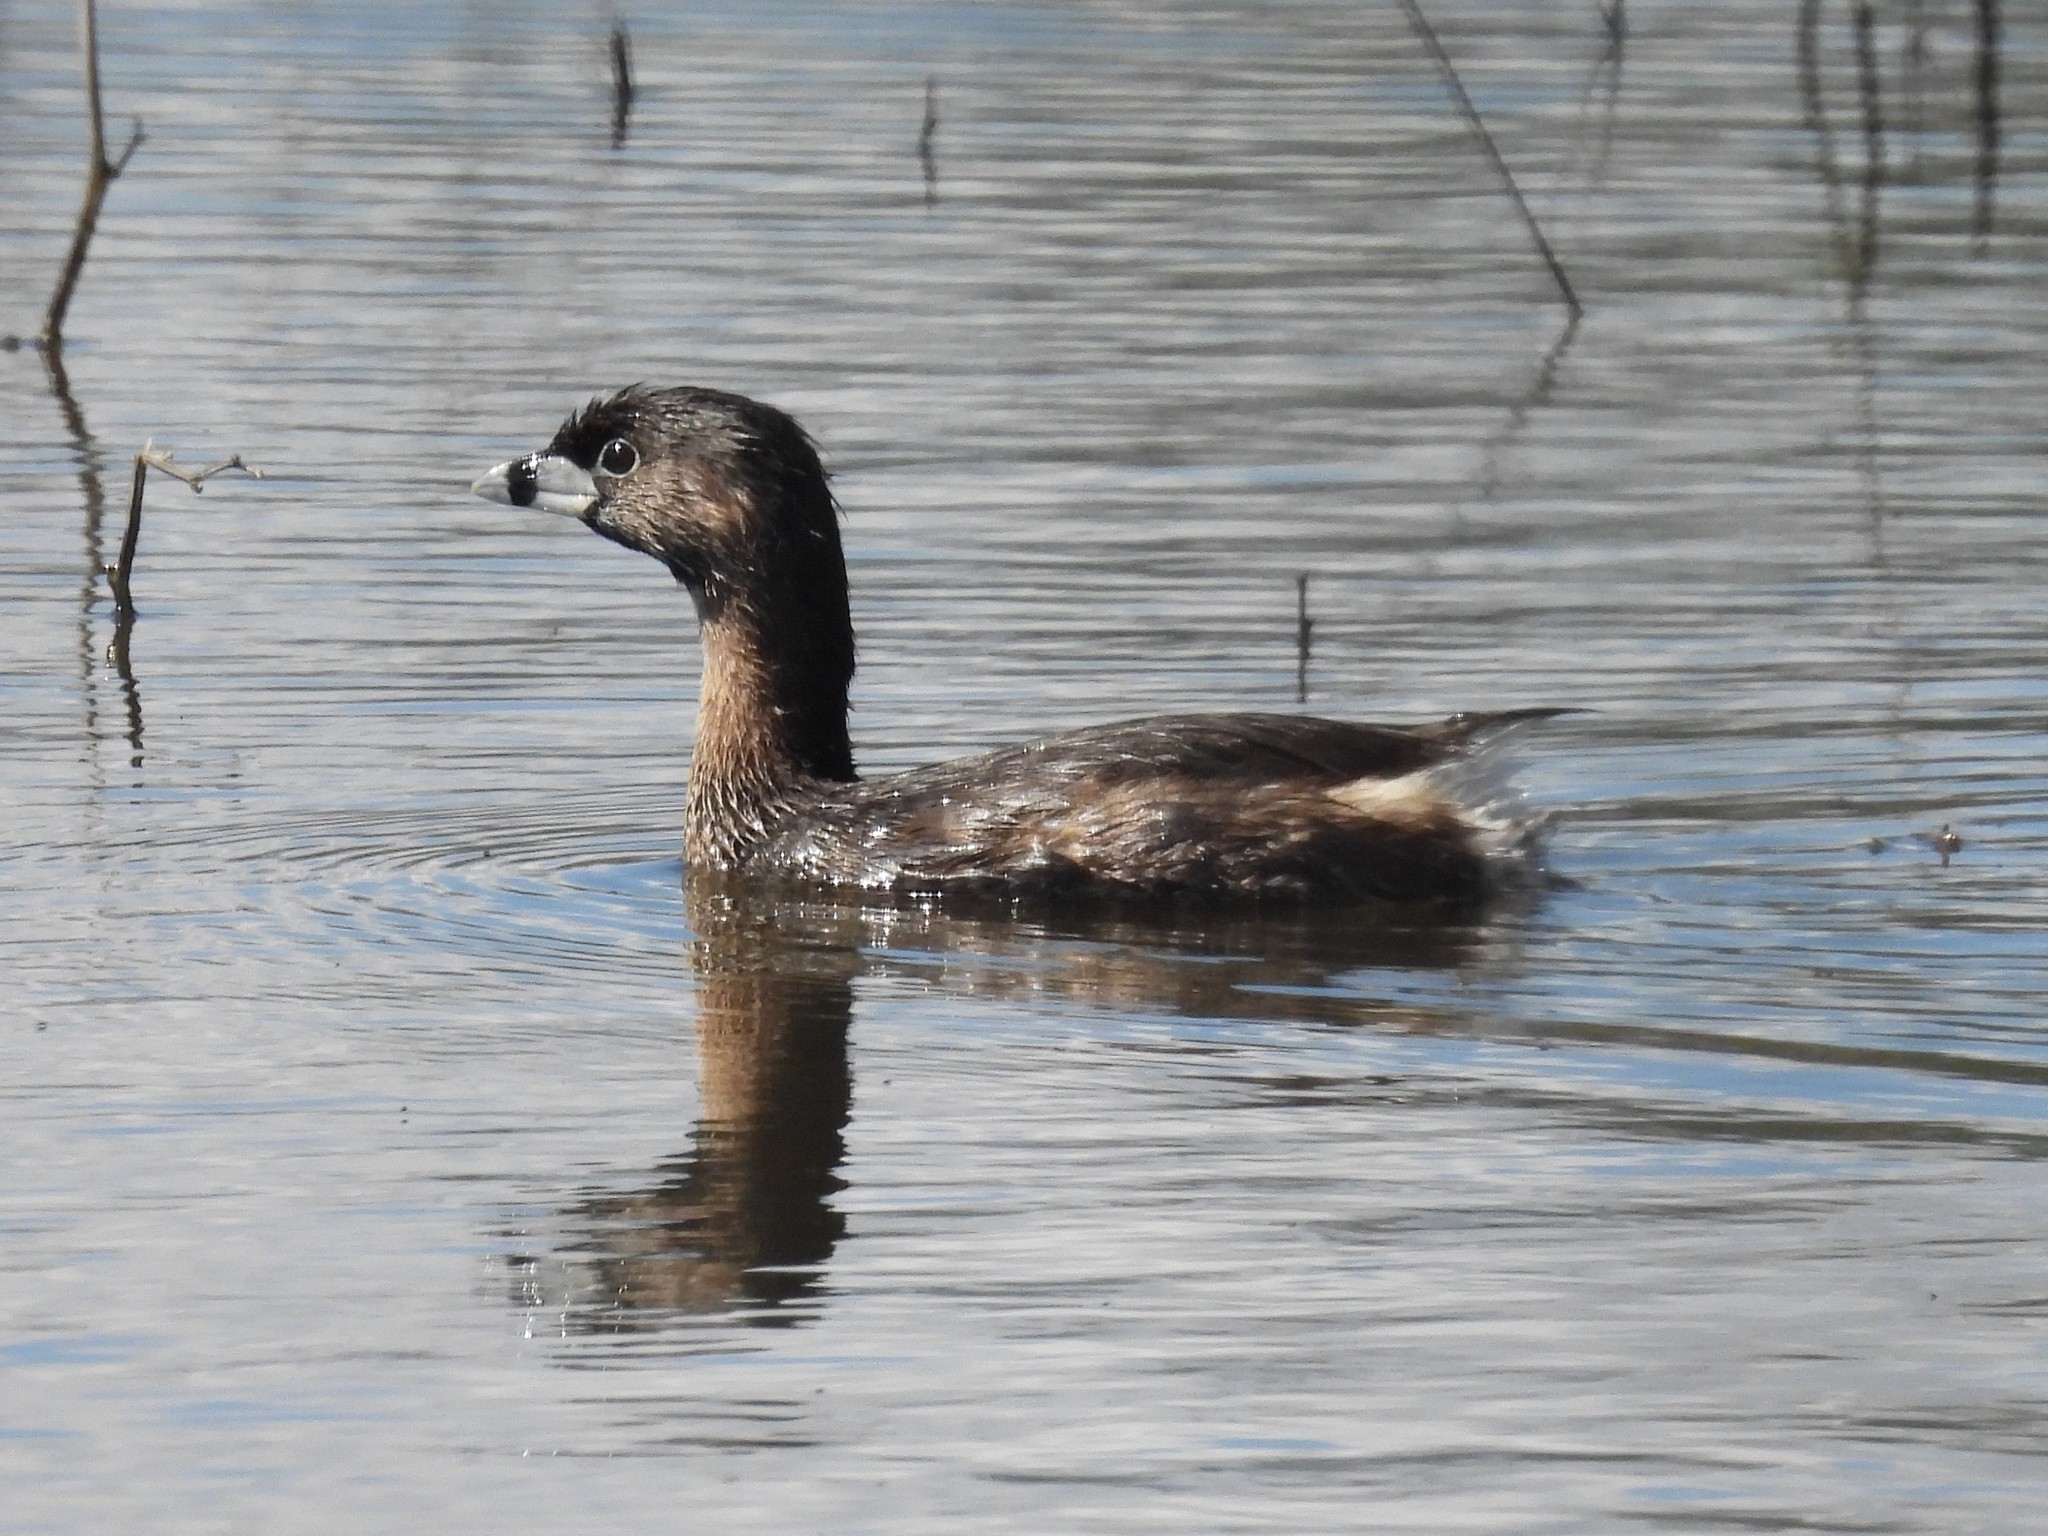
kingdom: Animalia
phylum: Chordata
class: Aves
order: Podicipediformes
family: Podicipedidae
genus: Podilymbus
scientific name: Podilymbus podiceps
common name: Pied-billed grebe
